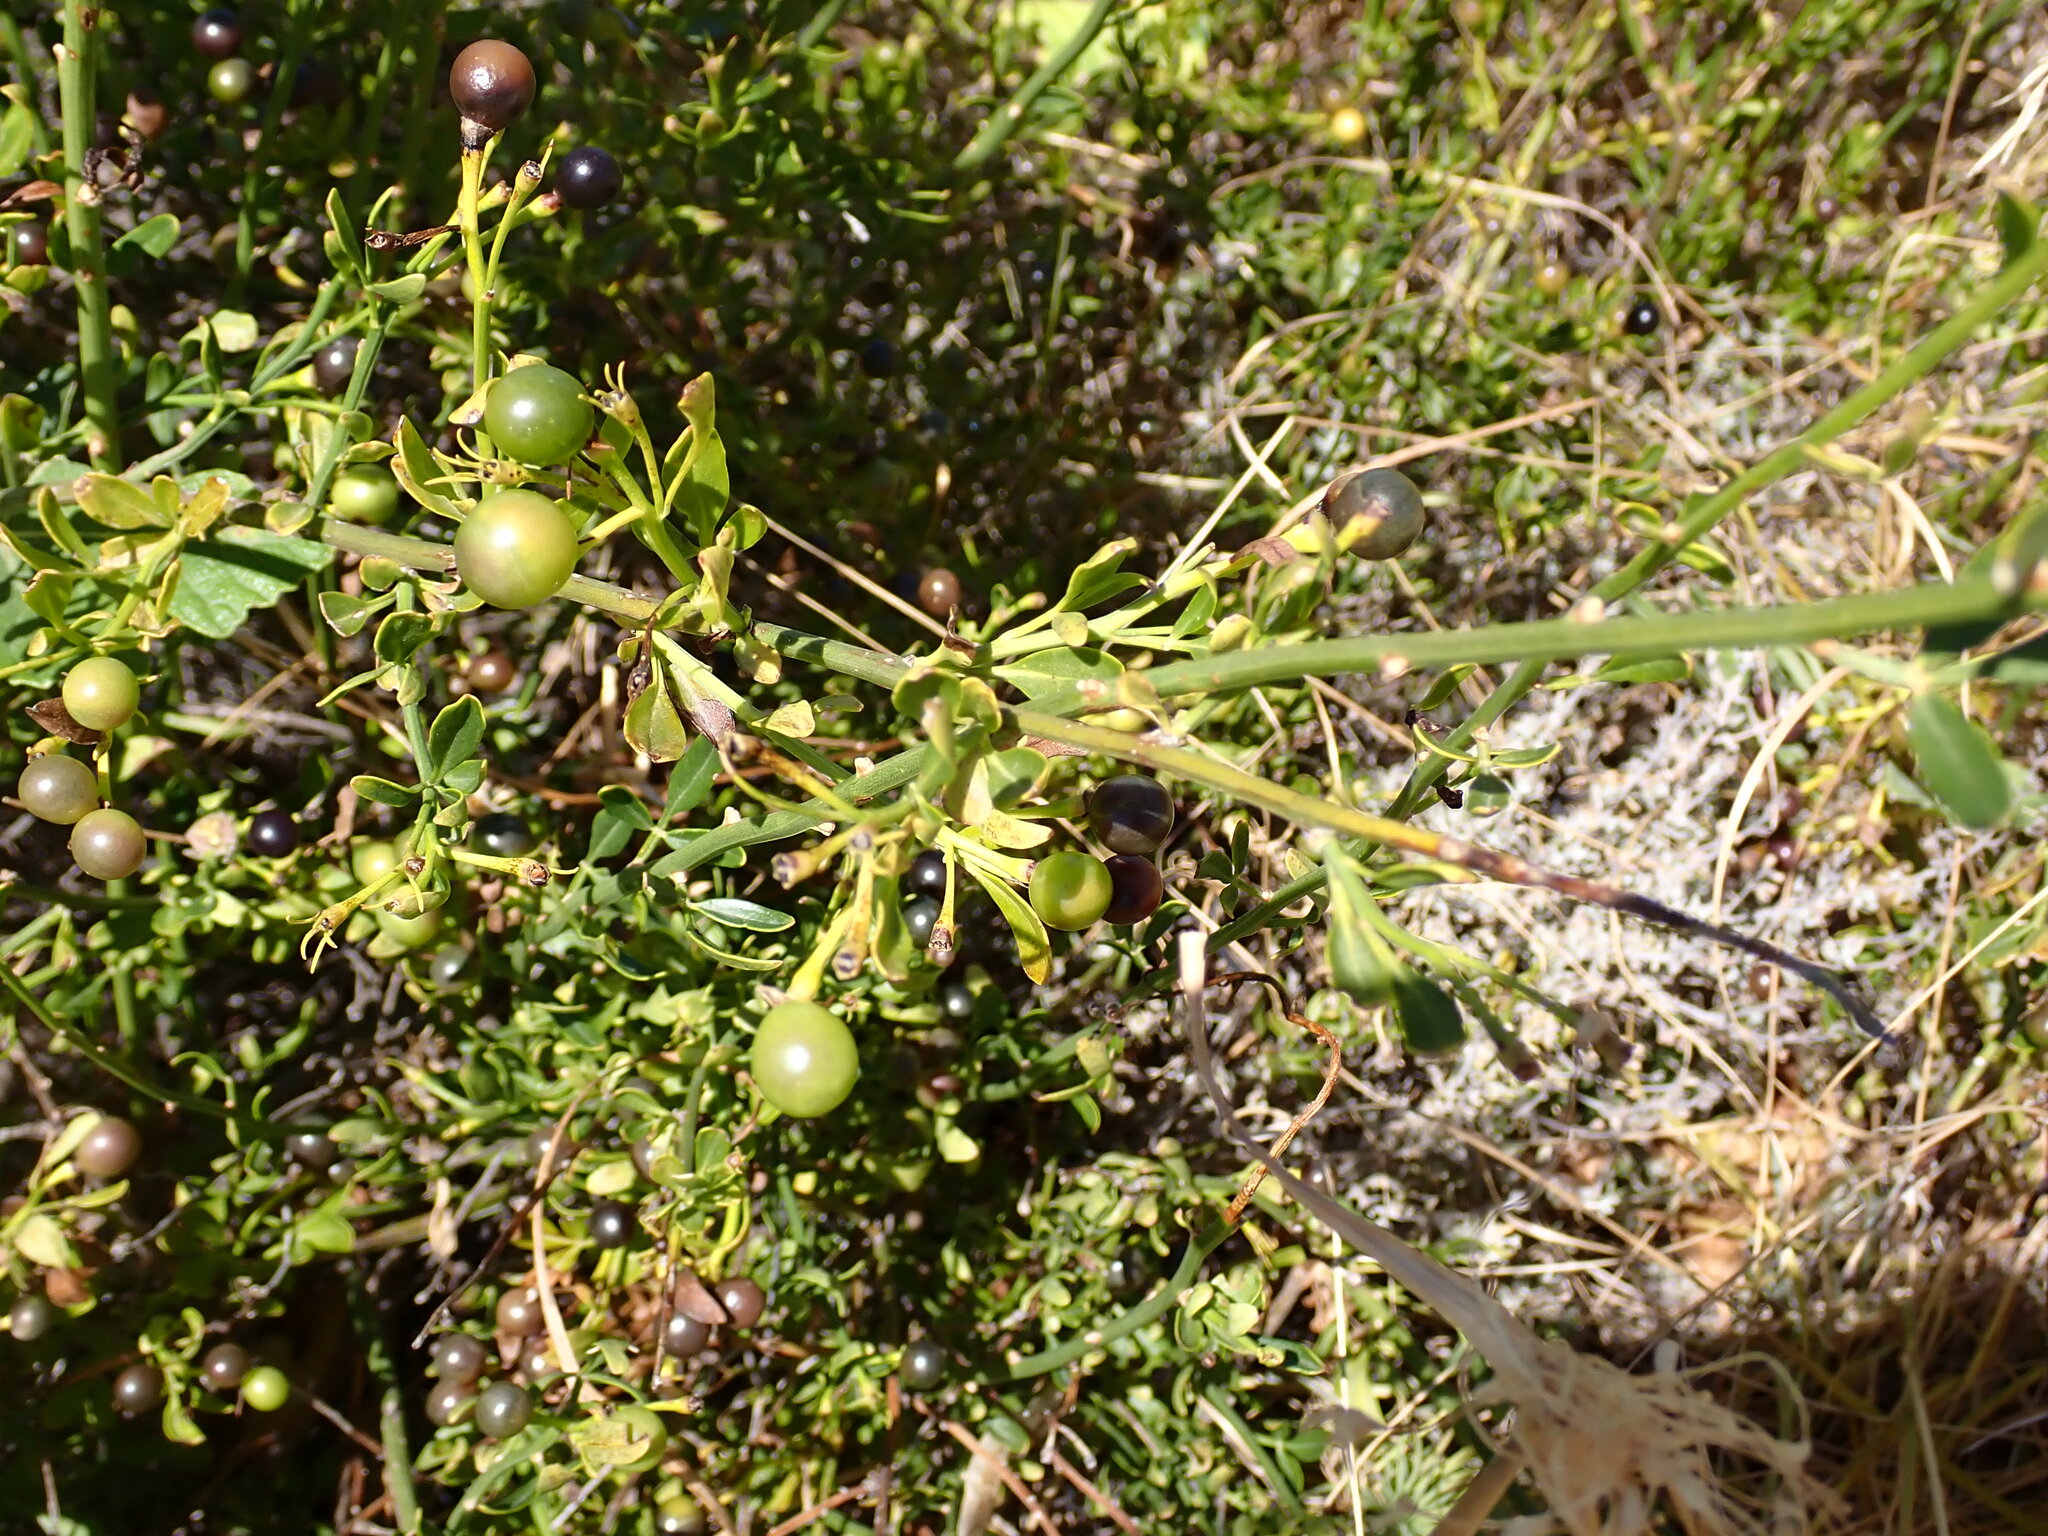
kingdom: Plantae
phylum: Tracheophyta
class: Magnoliopsida
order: Lamiales
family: Oleaceae
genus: Chrysojasminum
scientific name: Chrysojasminum fruticans
